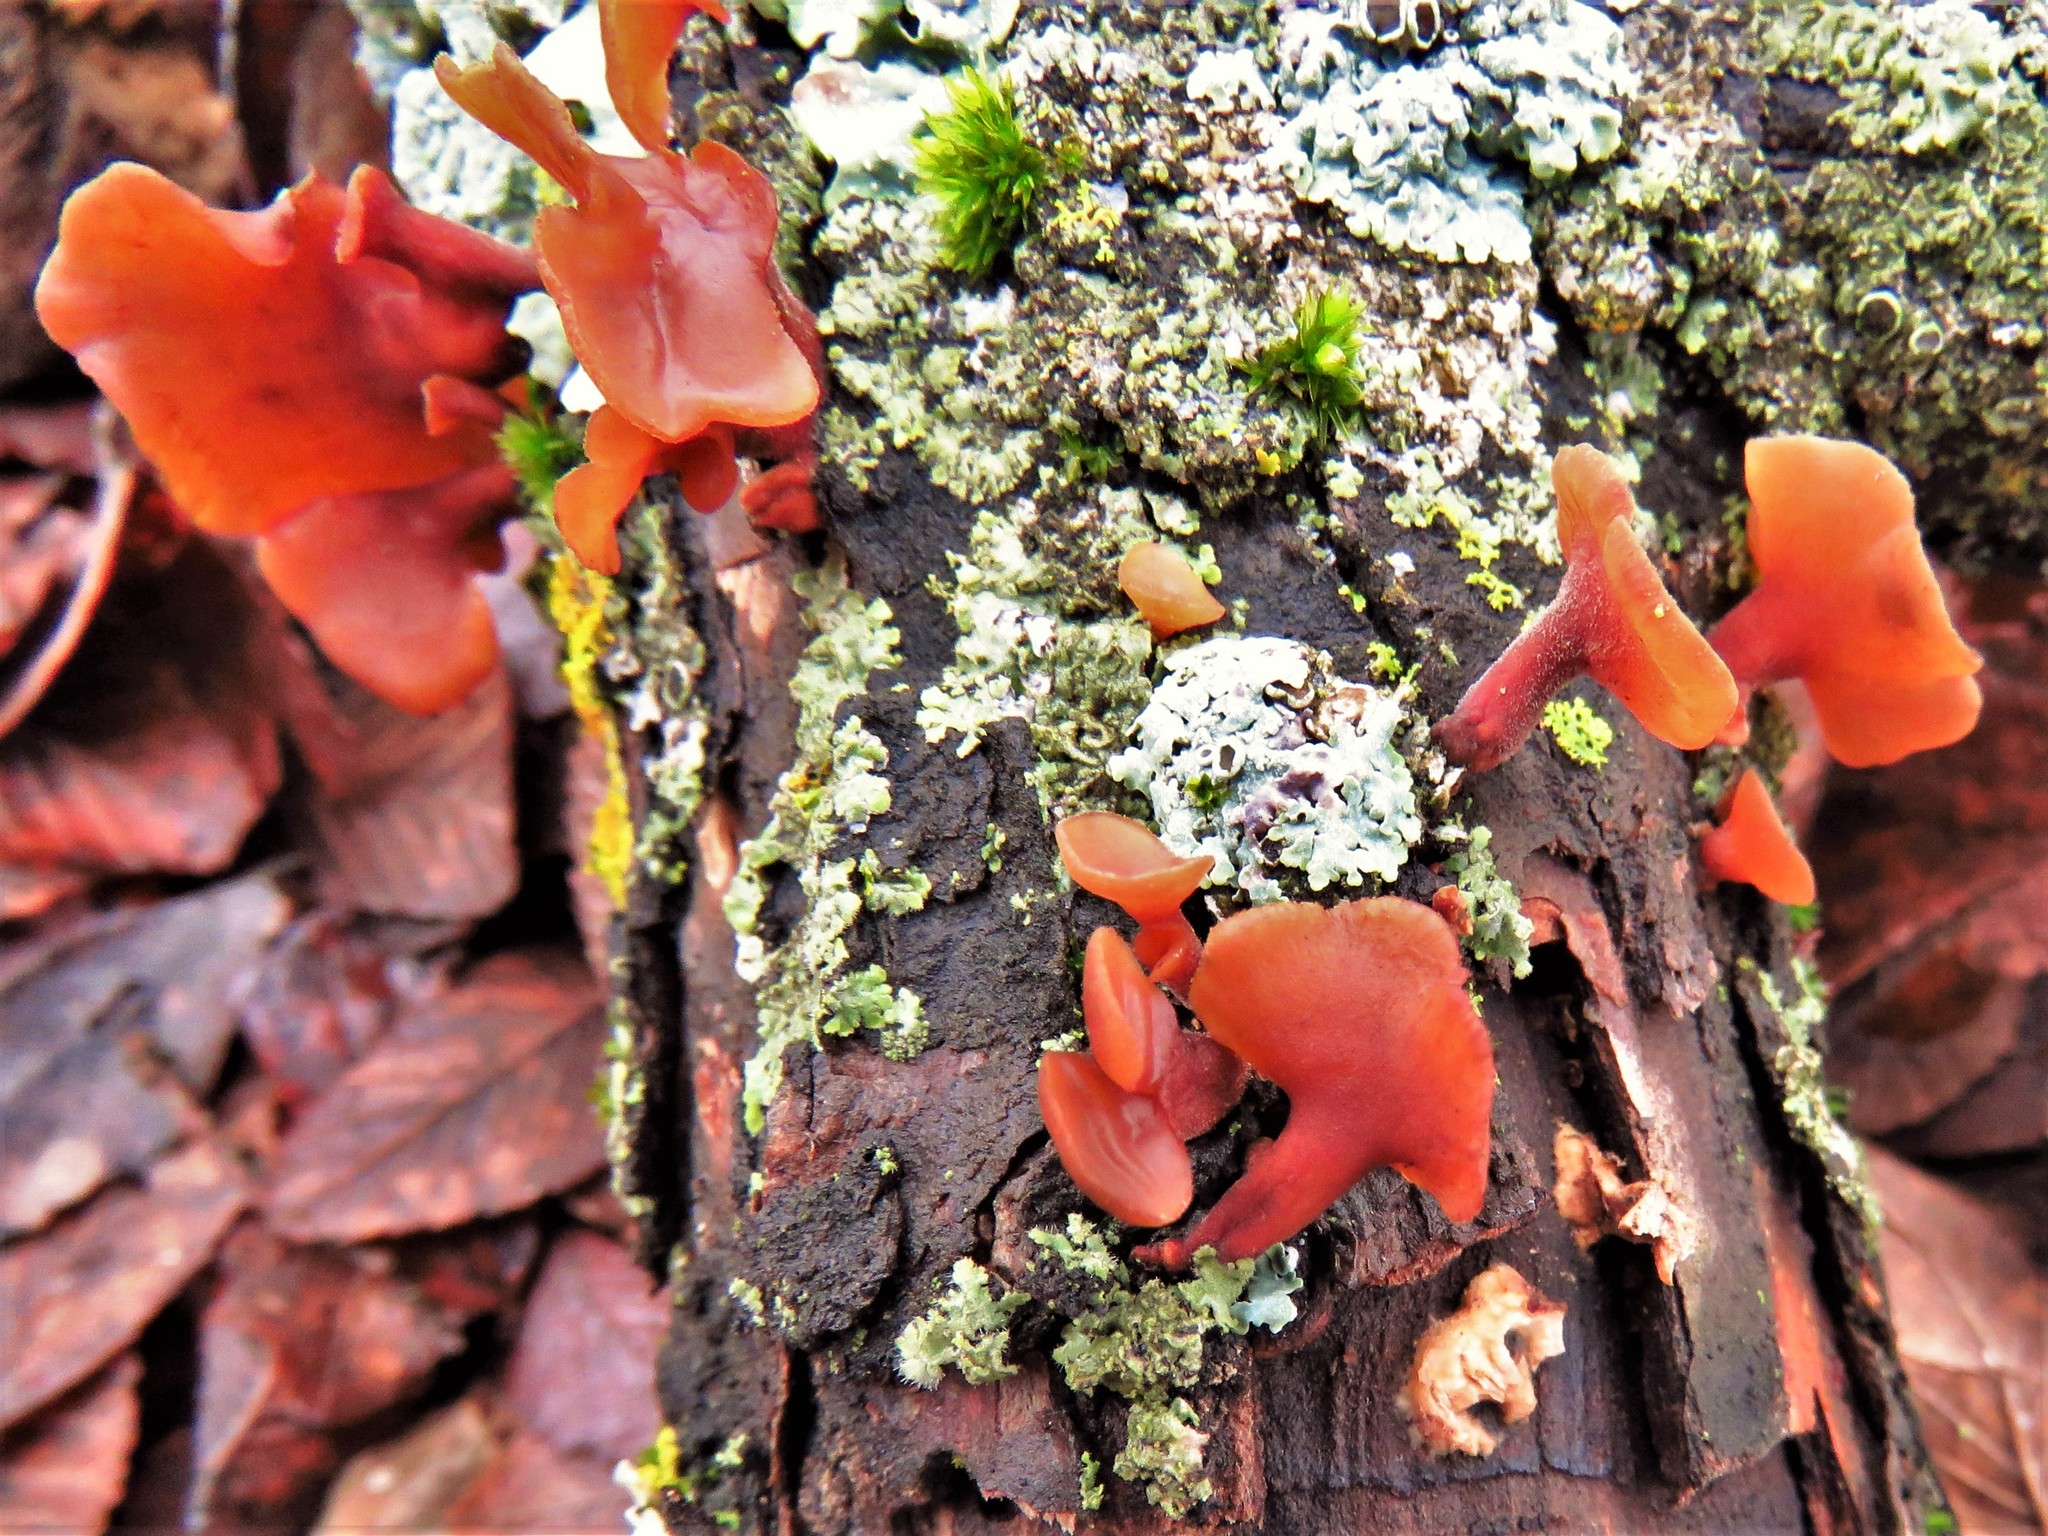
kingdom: Fungi
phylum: Basidiomycota
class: Dacrymycetes
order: Dacrymycetales
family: Dacrymycetaceae
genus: Dacryopinax
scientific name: Dacryopinax elegans
